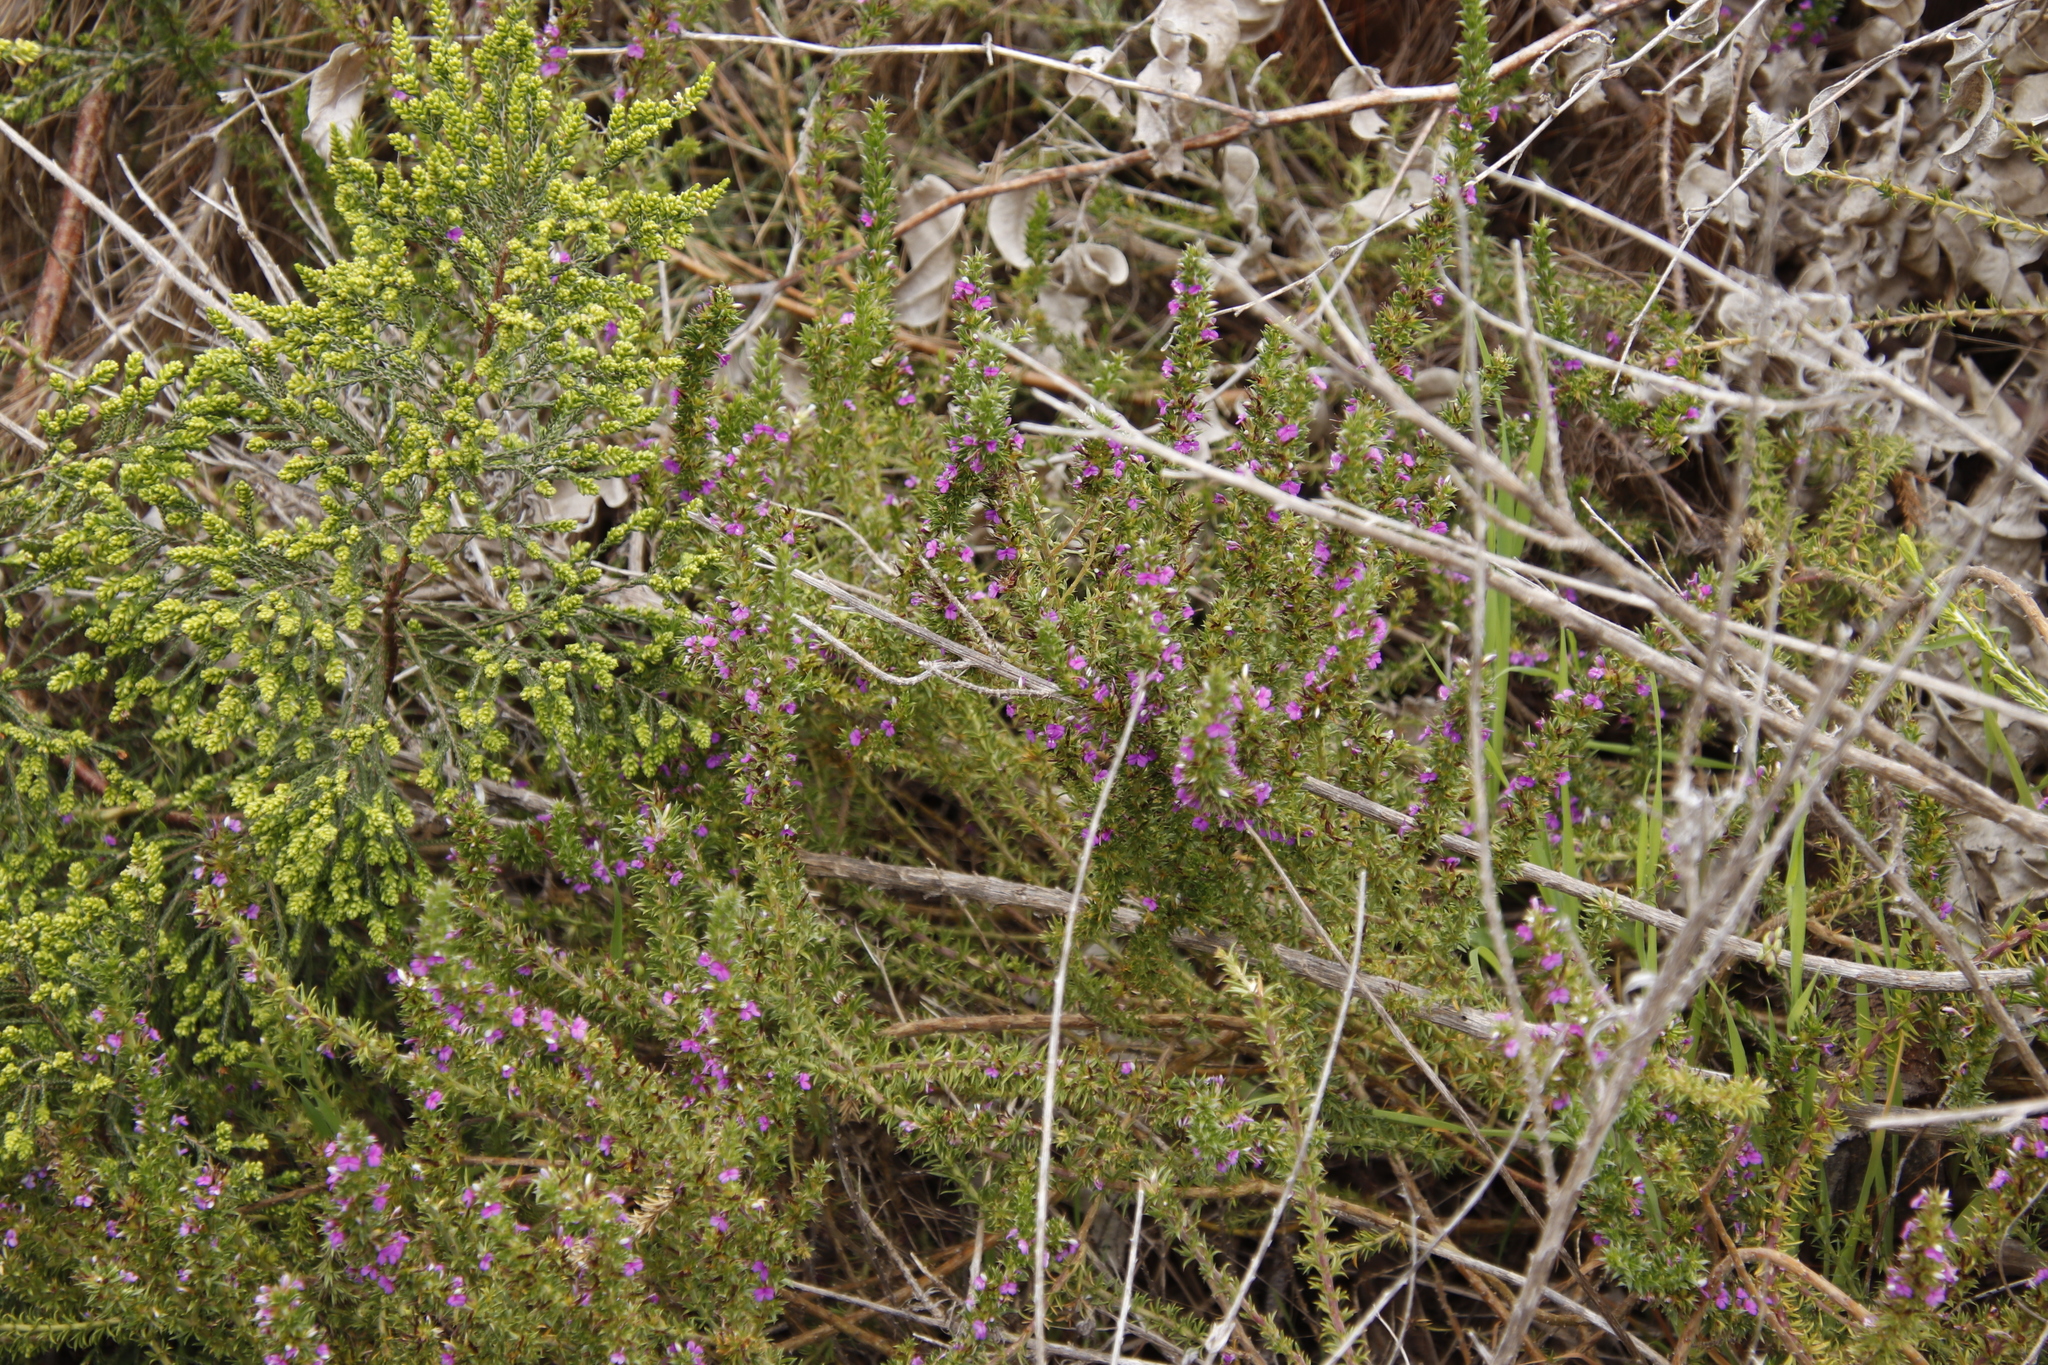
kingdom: Plantae
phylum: Tracheophyta
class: Magnoliopsida
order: Fabales
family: Polygalaceae
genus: Muraltia
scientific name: Muraltia
